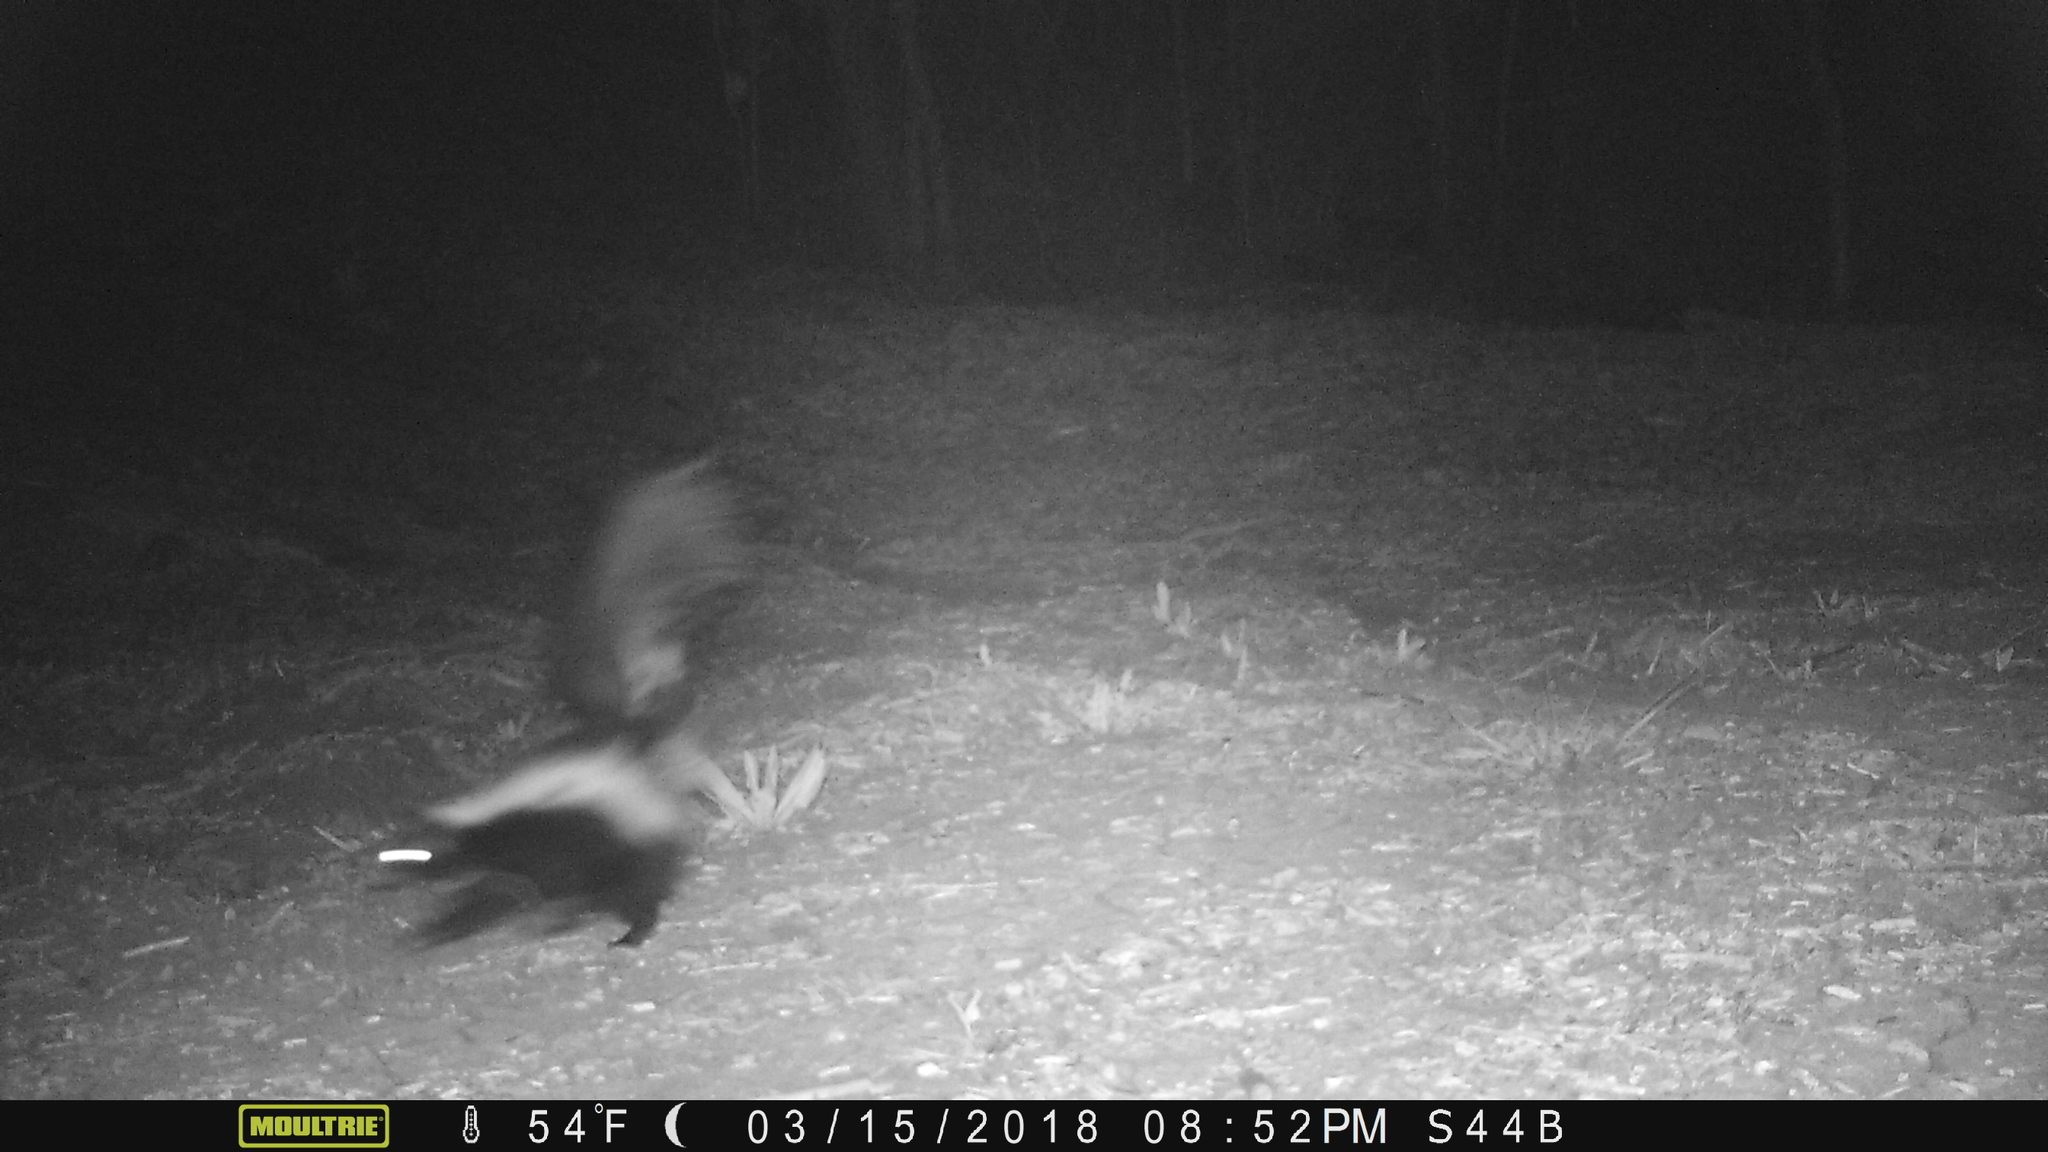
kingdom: Animalia
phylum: Chordata
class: Mammalia
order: Carnivora
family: Mephitidae
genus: Mephitis
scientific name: Mephitis mephitis
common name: Striped skunk
